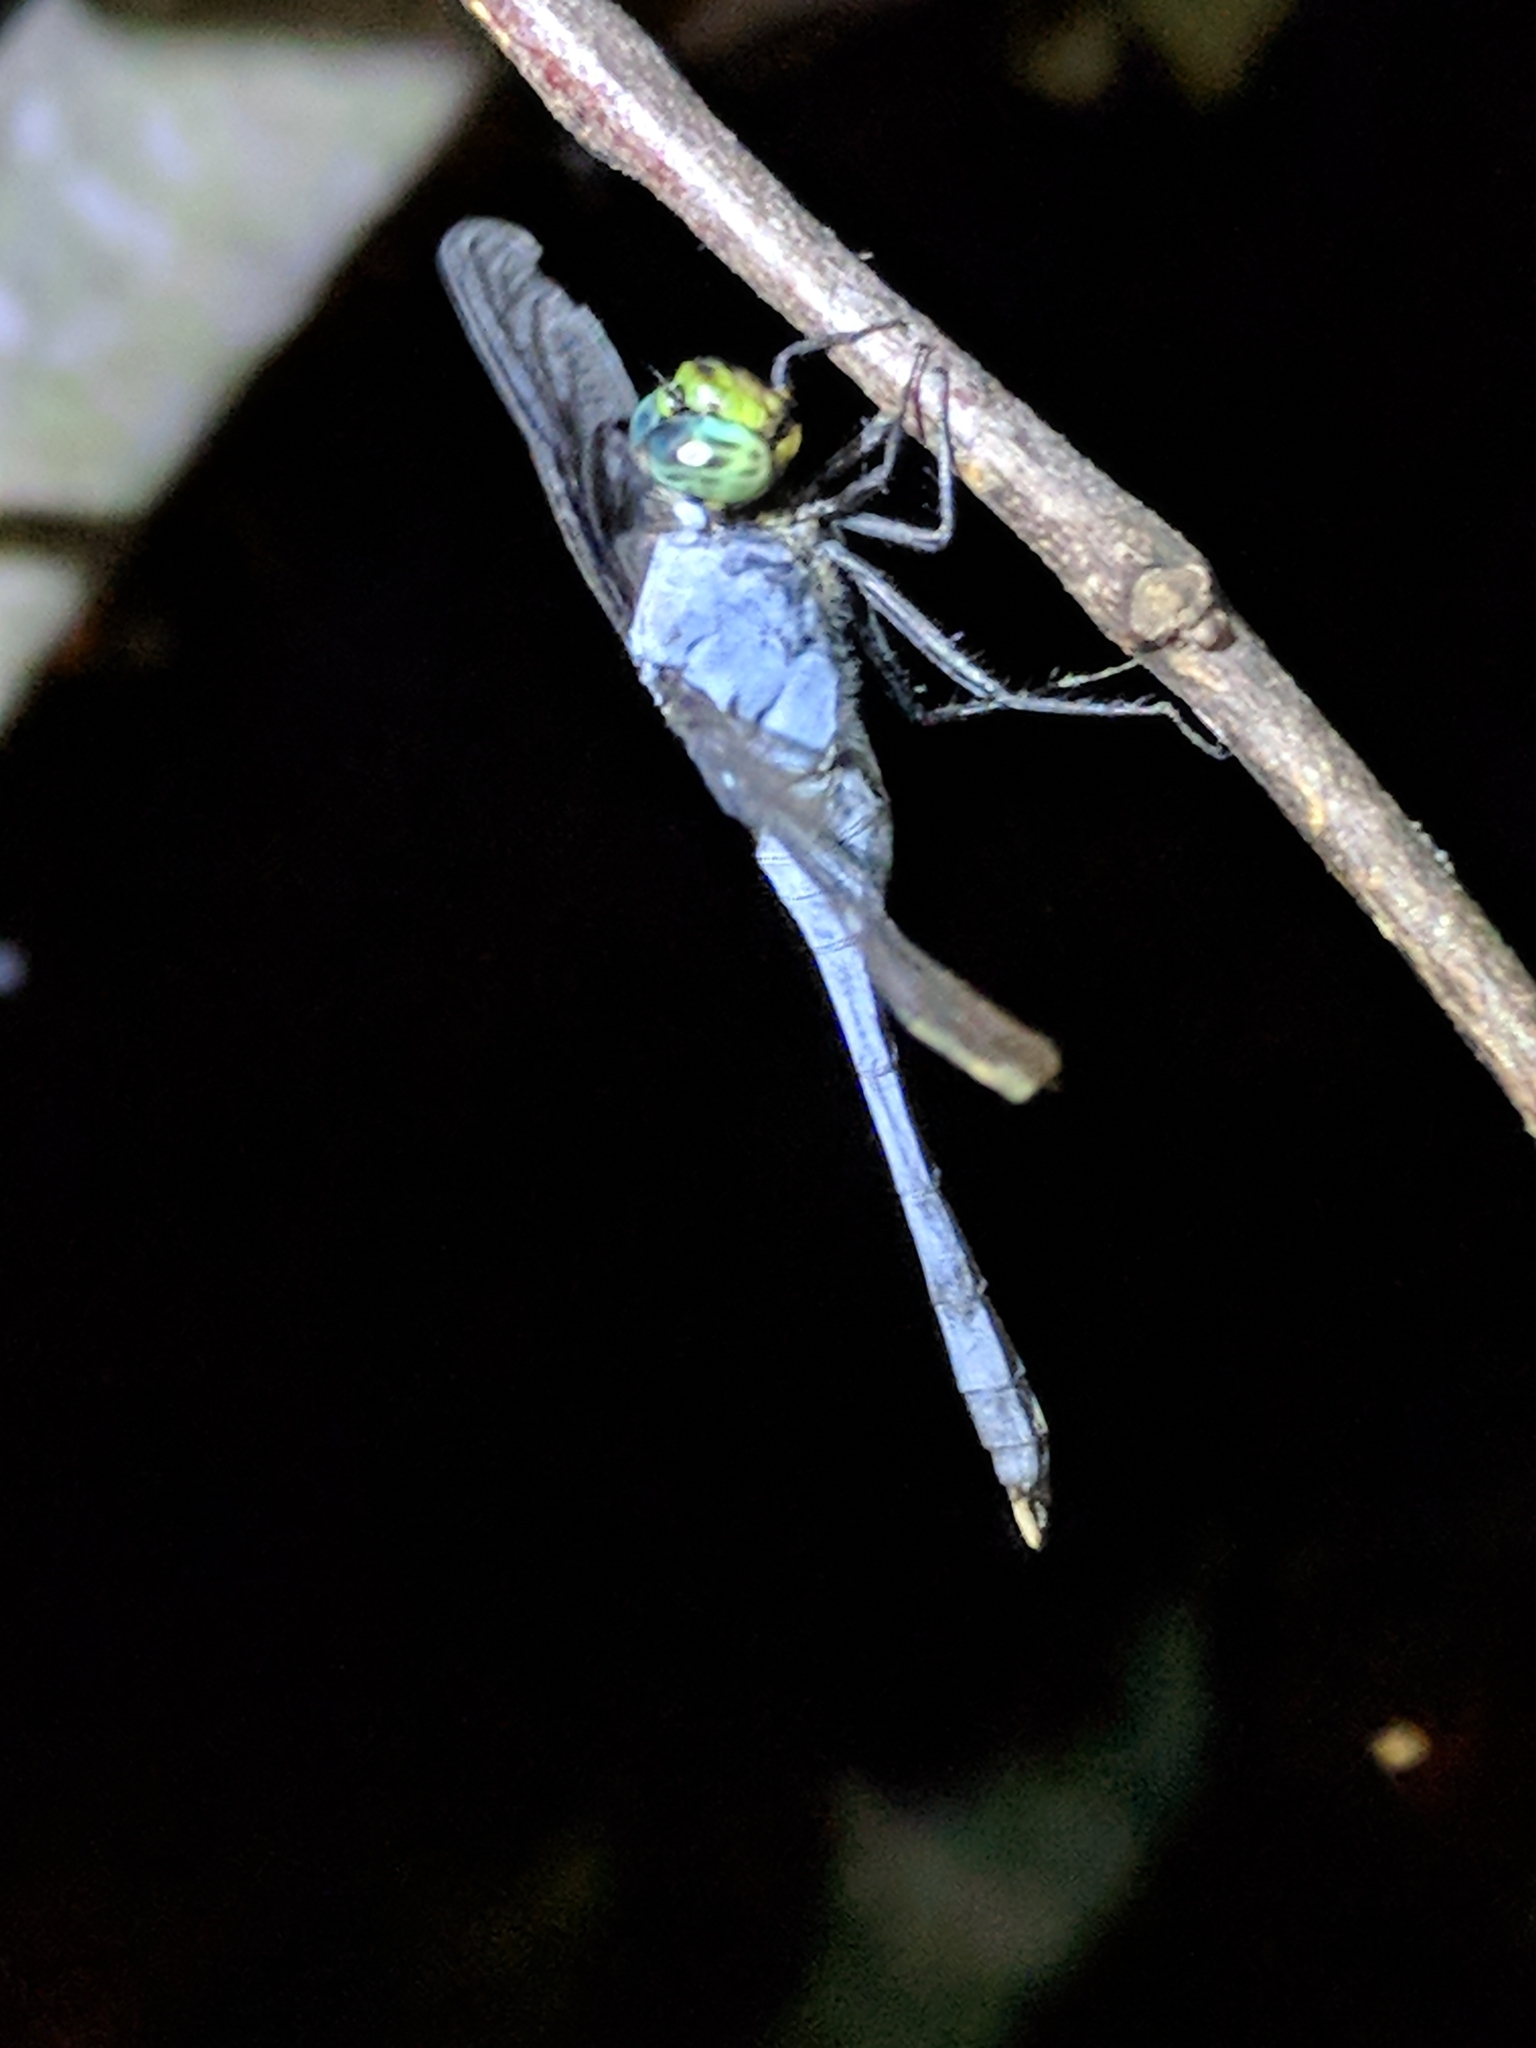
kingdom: Animalia
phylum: Arthropoda
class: Insecta
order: Odonata
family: Libellulidae
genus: Erythemis
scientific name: Erythemis simplicicollis
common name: Eastern pondhawk
